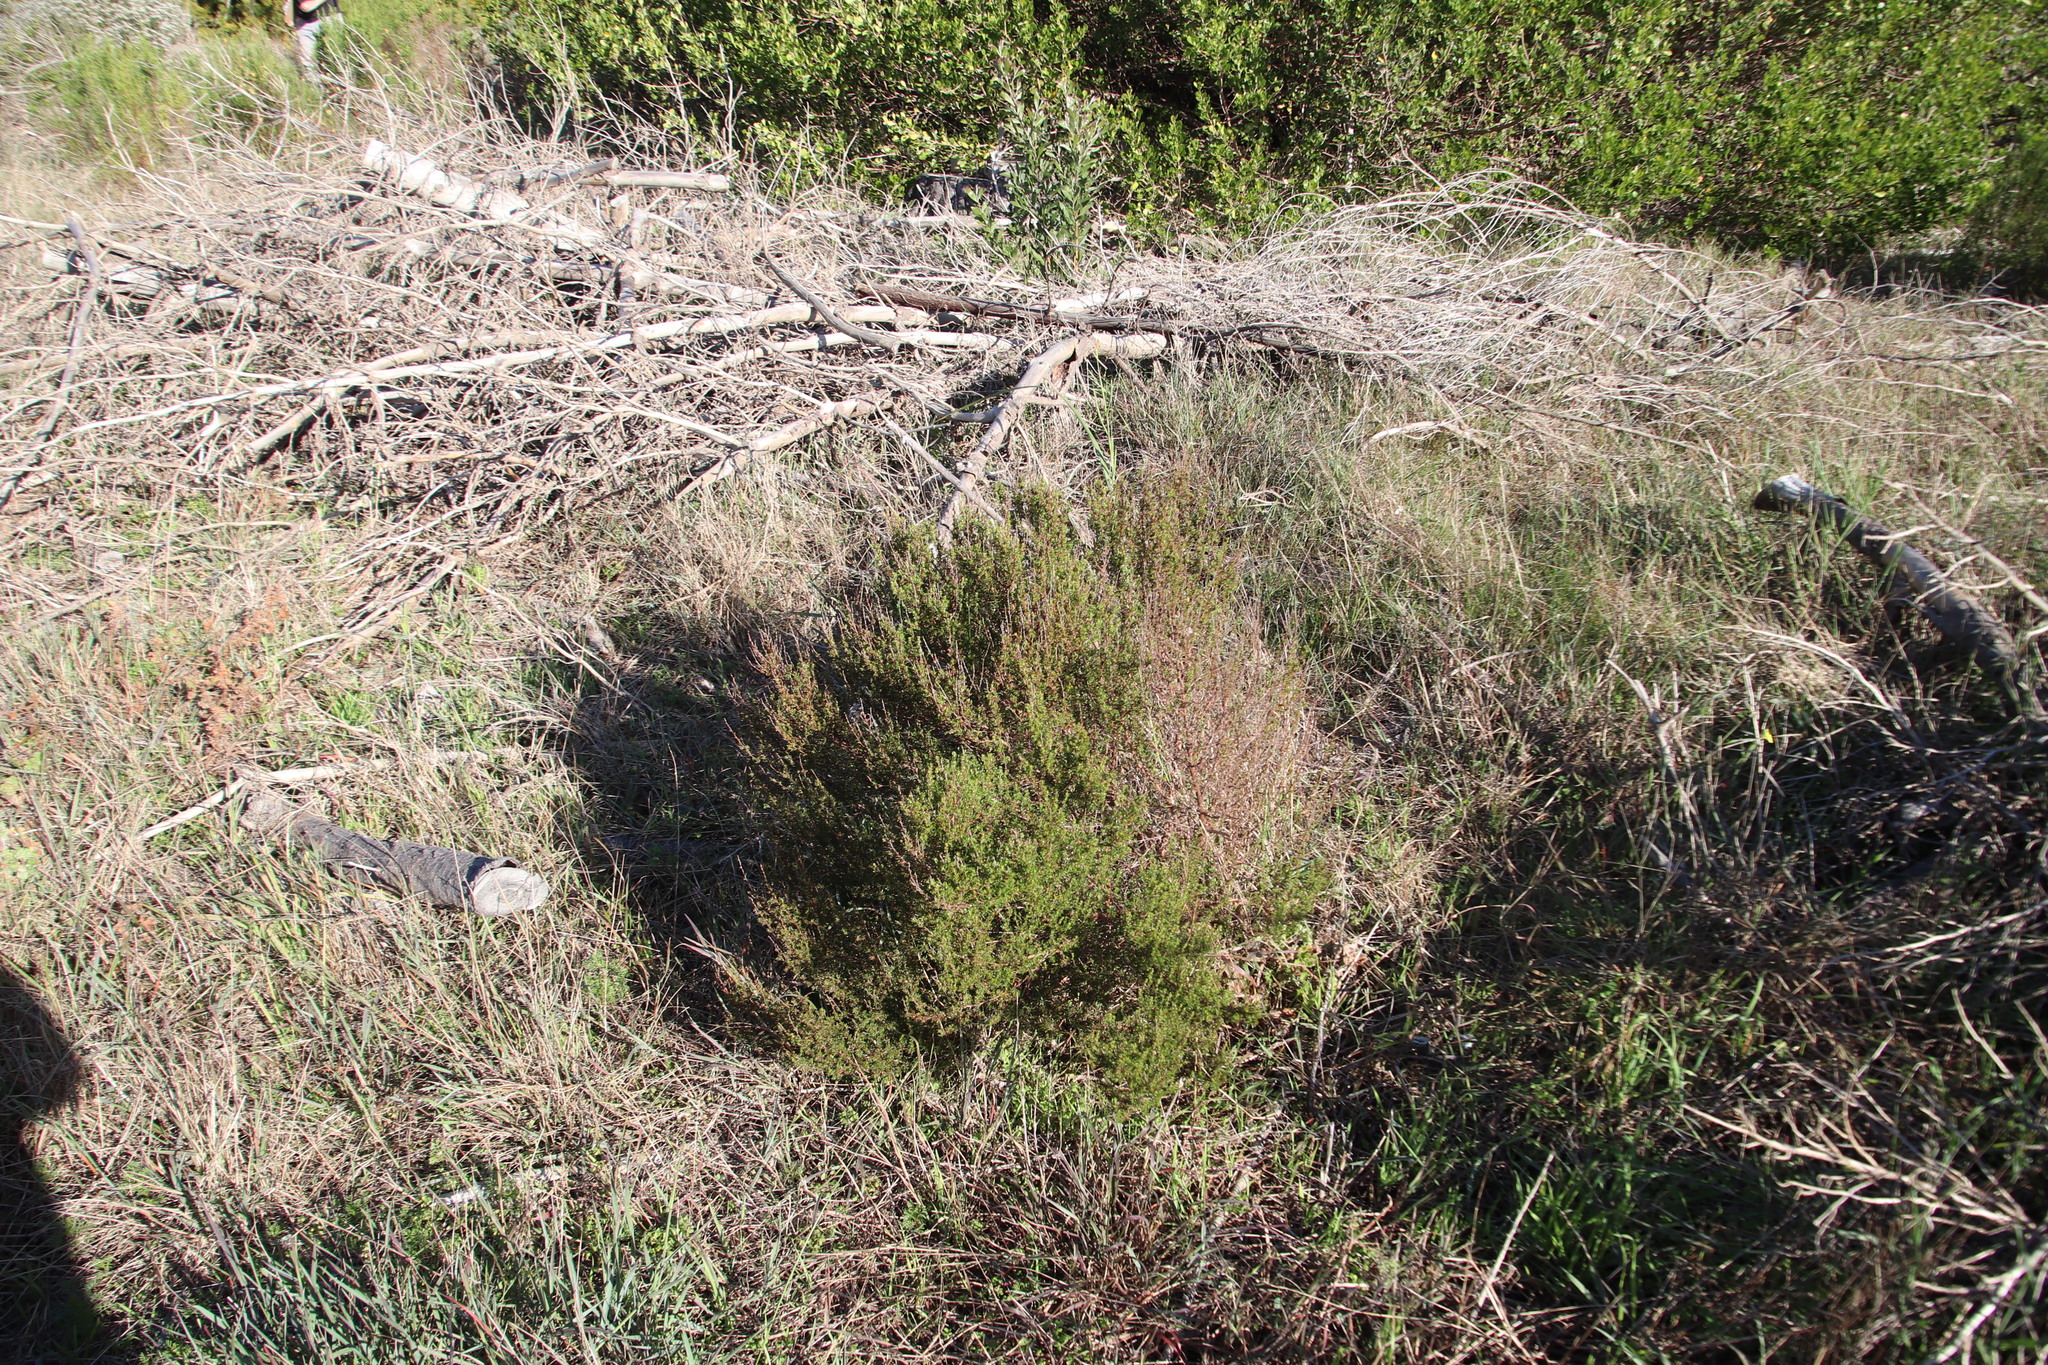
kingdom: Plantae
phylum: Tracheophyta
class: Magnoliopsida
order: Rosales
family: Rosaceae
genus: Cliffortia
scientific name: Cliffortia falcata
